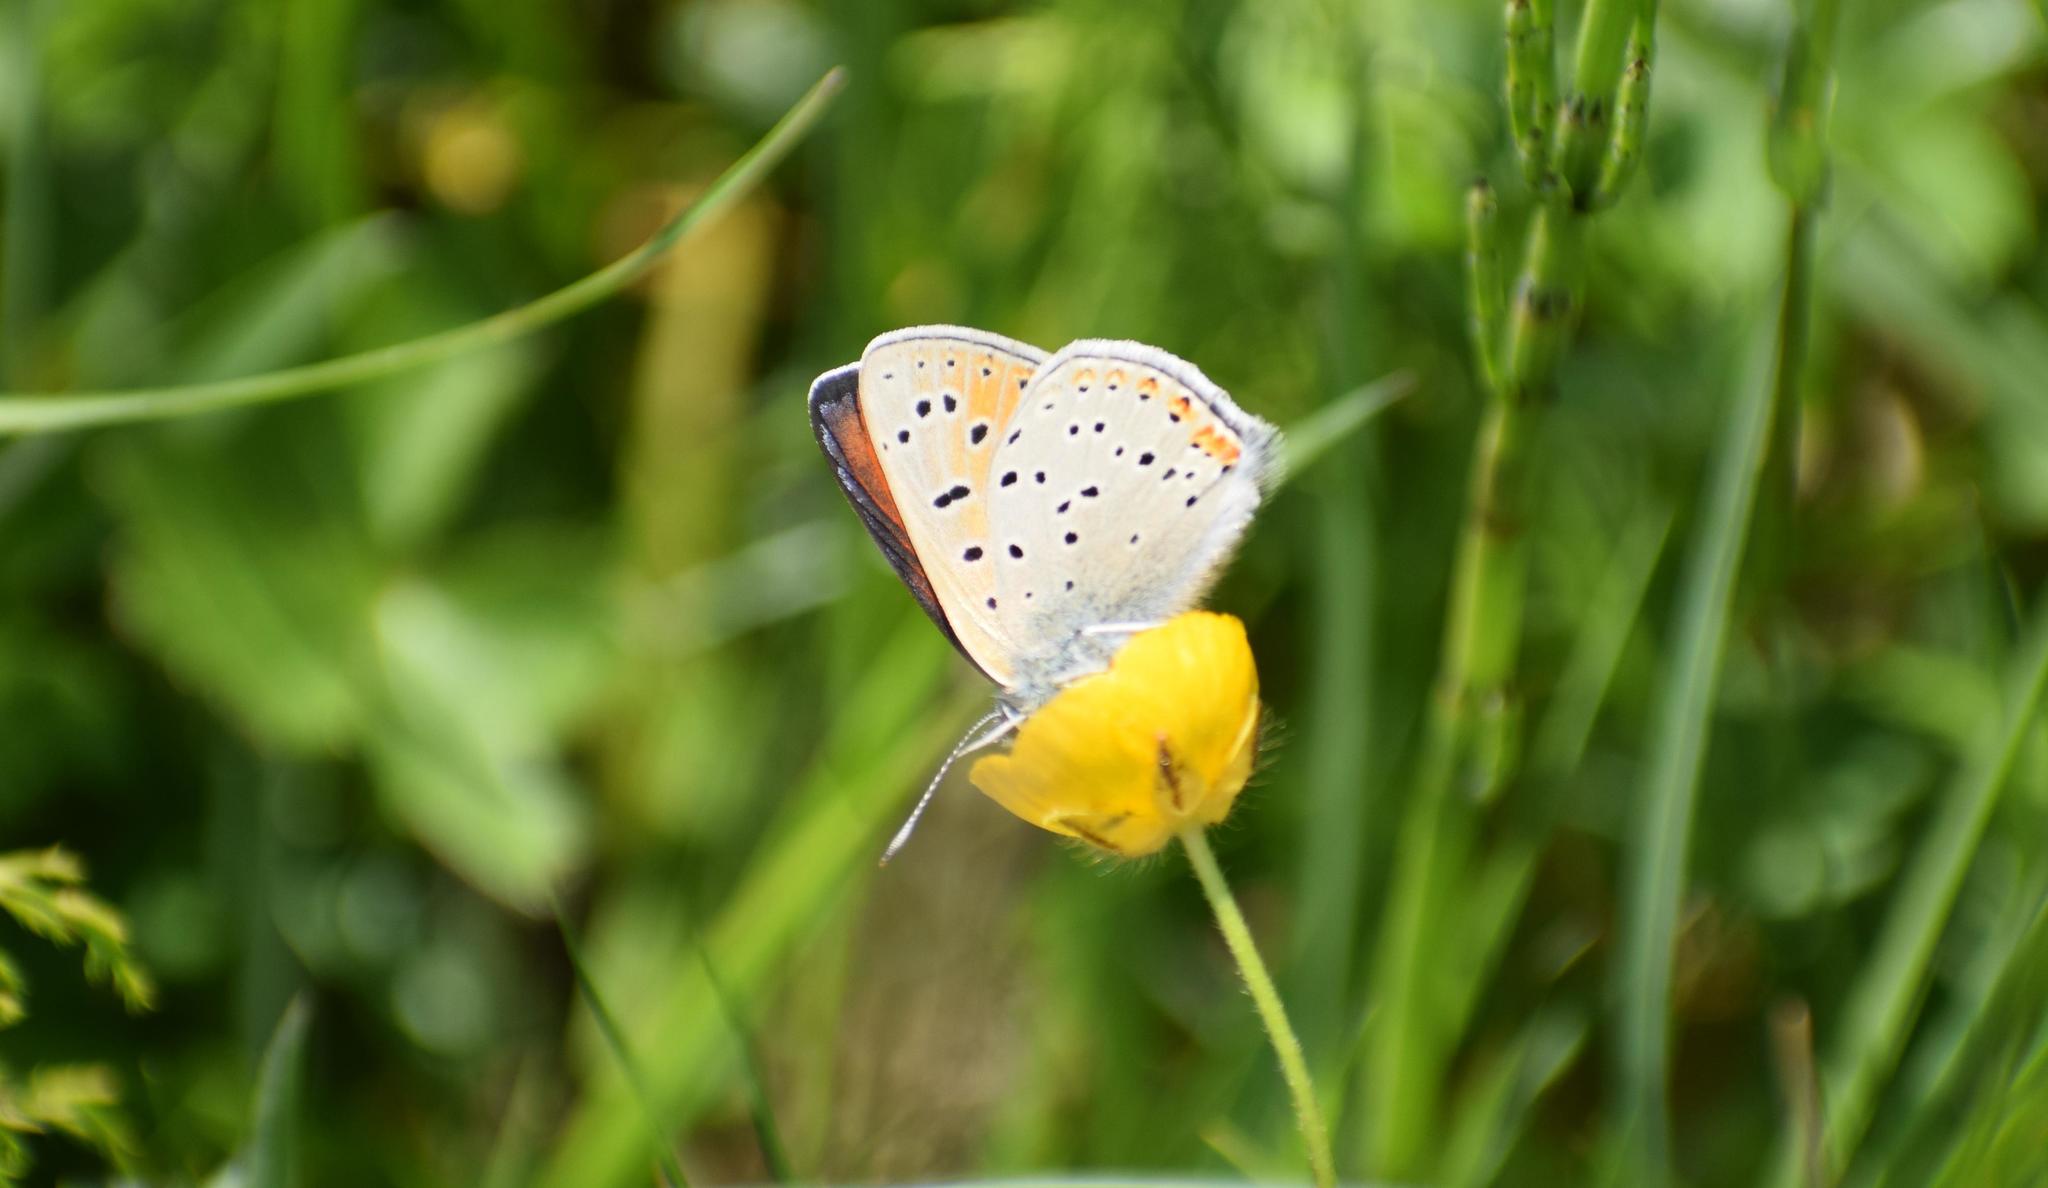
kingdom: Animalia
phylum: Arthropoda
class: Insecta
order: Lepidoptera
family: Lycaenidae
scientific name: Lycaenidae
